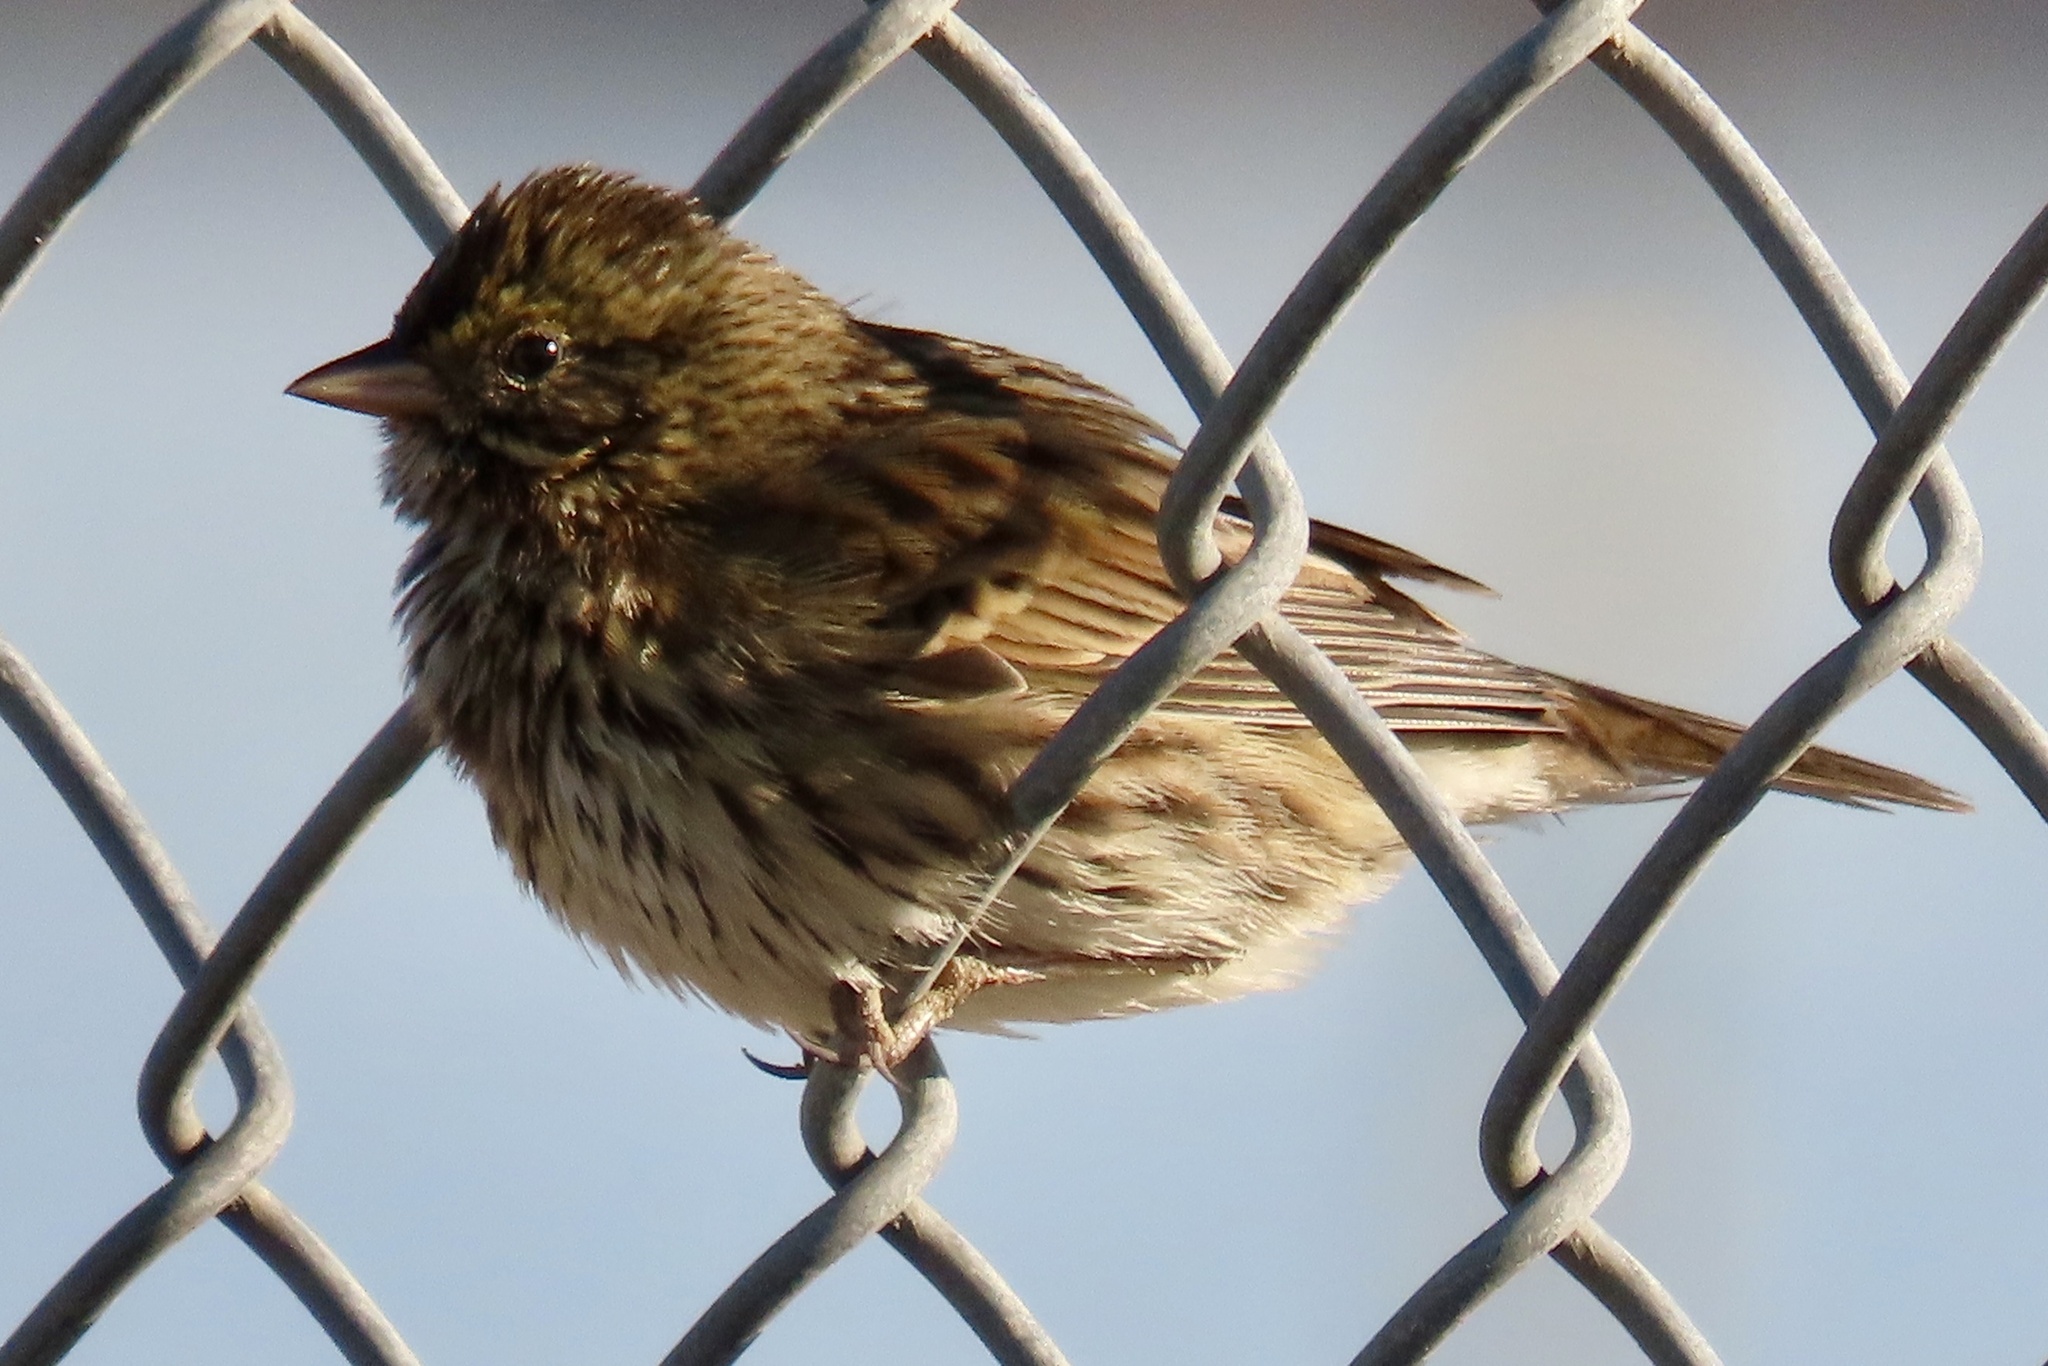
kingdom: Animalia
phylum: Chordata
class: Aves
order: Passeriformes
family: Passerellidae
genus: Passerculus
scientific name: Passerculus sandwichensis
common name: Savannah sparrow
